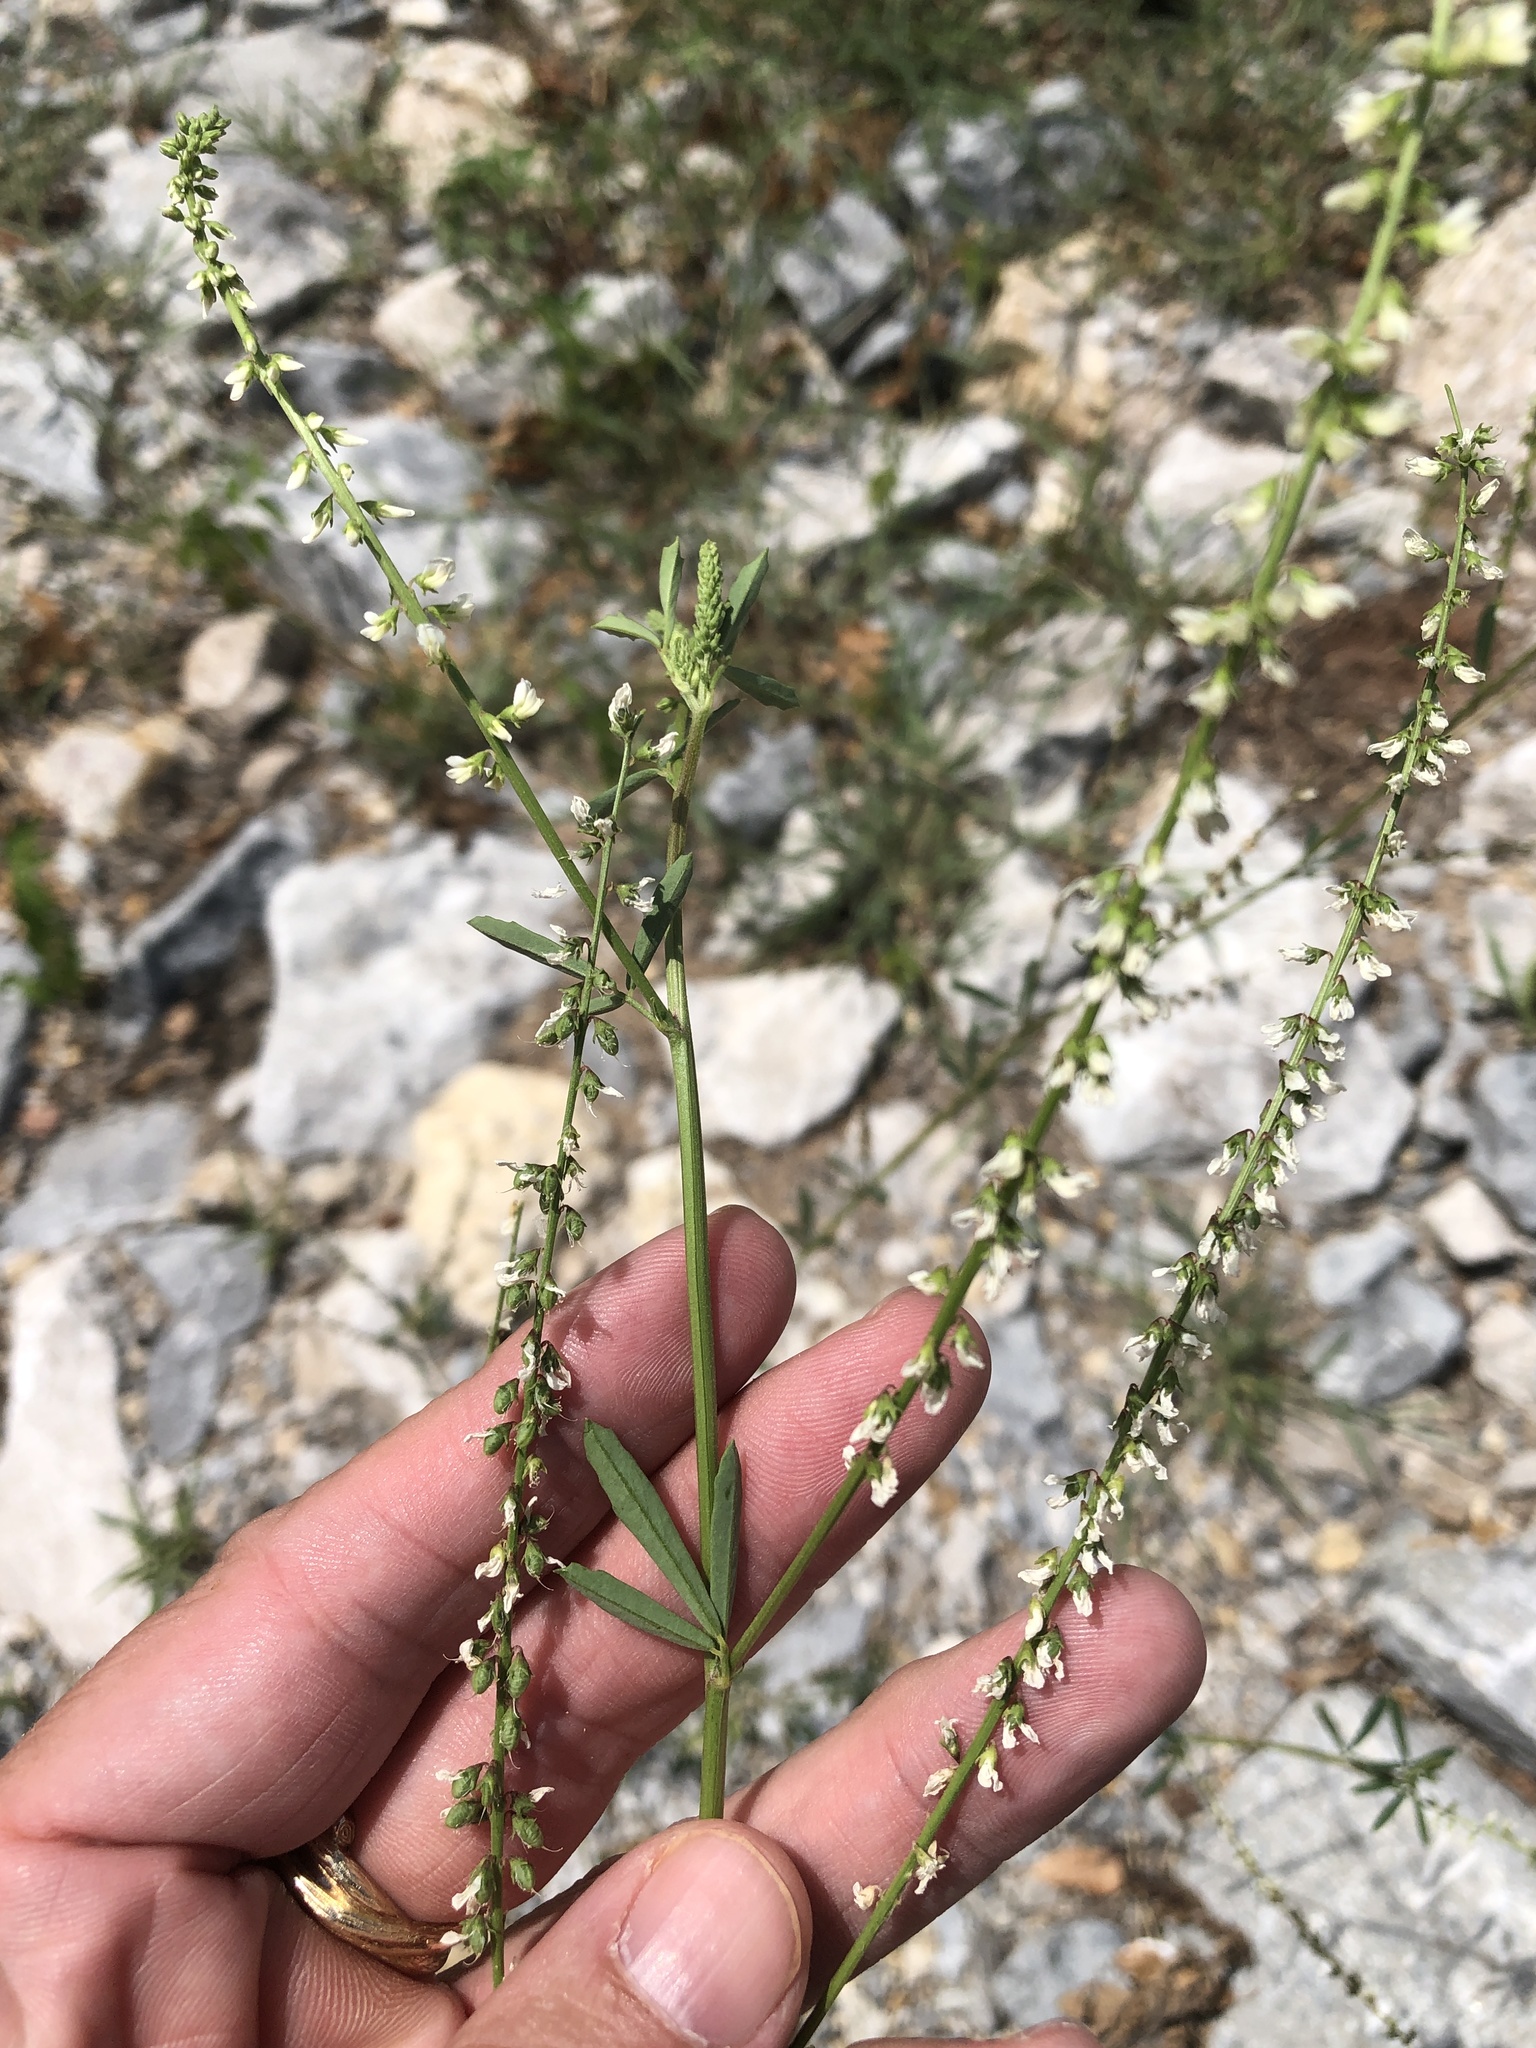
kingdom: Plantae
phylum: Tracheophyta
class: Magnoliopsida
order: Fabales
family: Fabaceae
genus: Melilotus
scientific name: Melilotus albus
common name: White melilot
